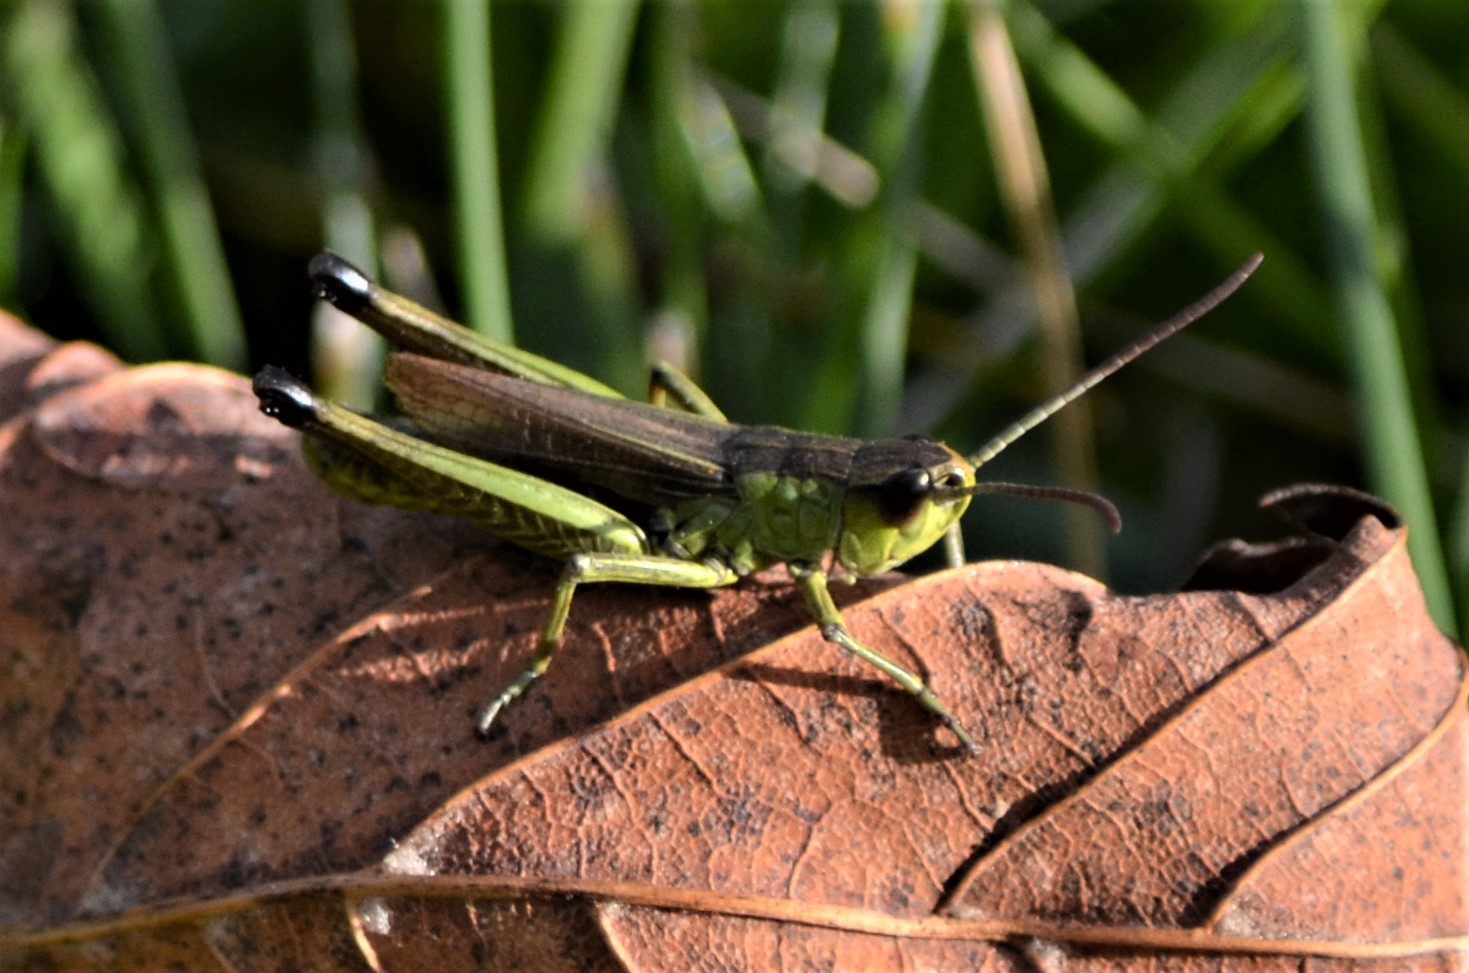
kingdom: Animalia
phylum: Arthropoda
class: Insecta
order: Orthoptera
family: Acrididae
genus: Pseudochorthippus
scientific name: Pseudochorthippus parallelus
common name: Meadow grasshopper
